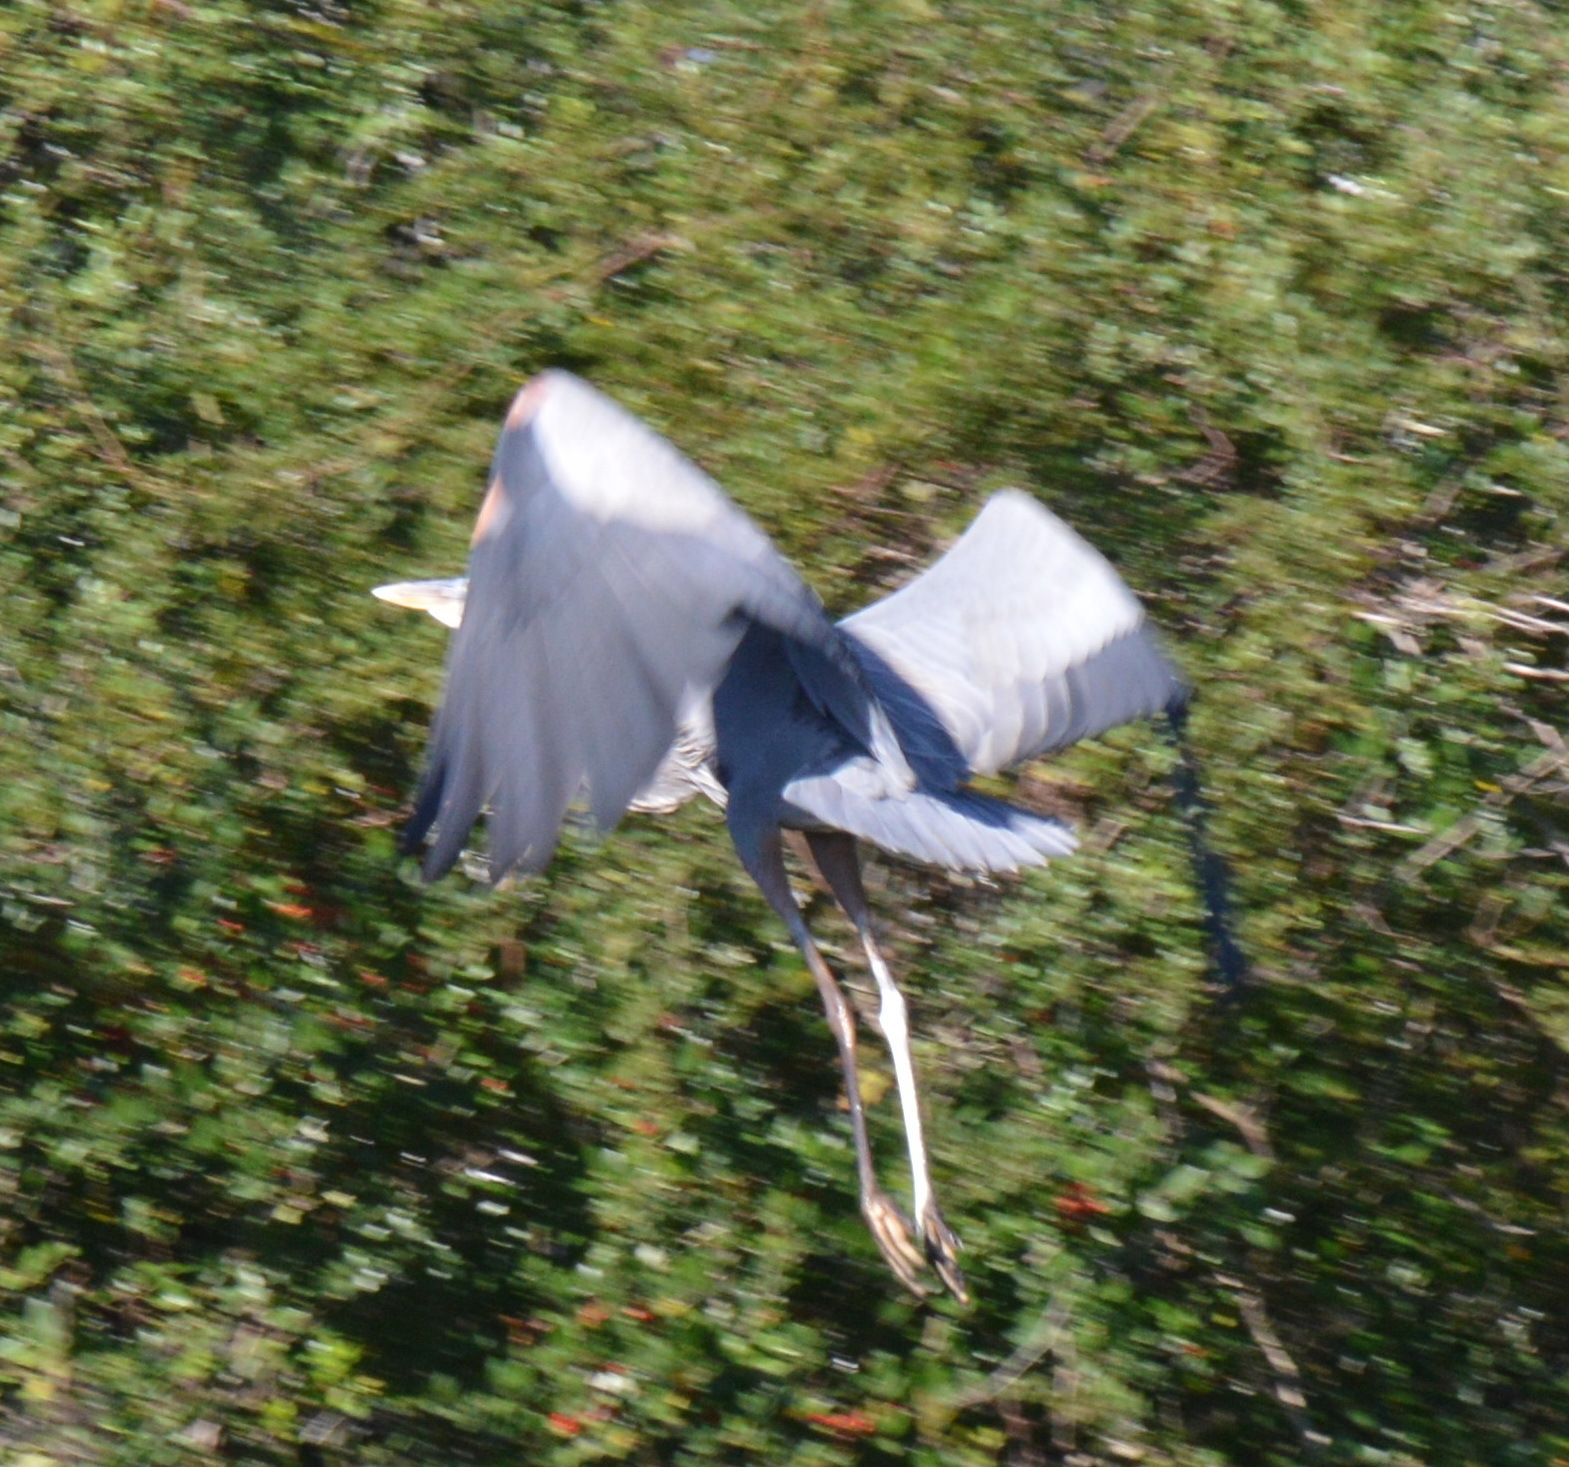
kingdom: Animalia
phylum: Chordata
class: Aves
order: Pelecaniformes
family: Ardeidae
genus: Ardea
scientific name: Ardea herodias
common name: Great blue heron
